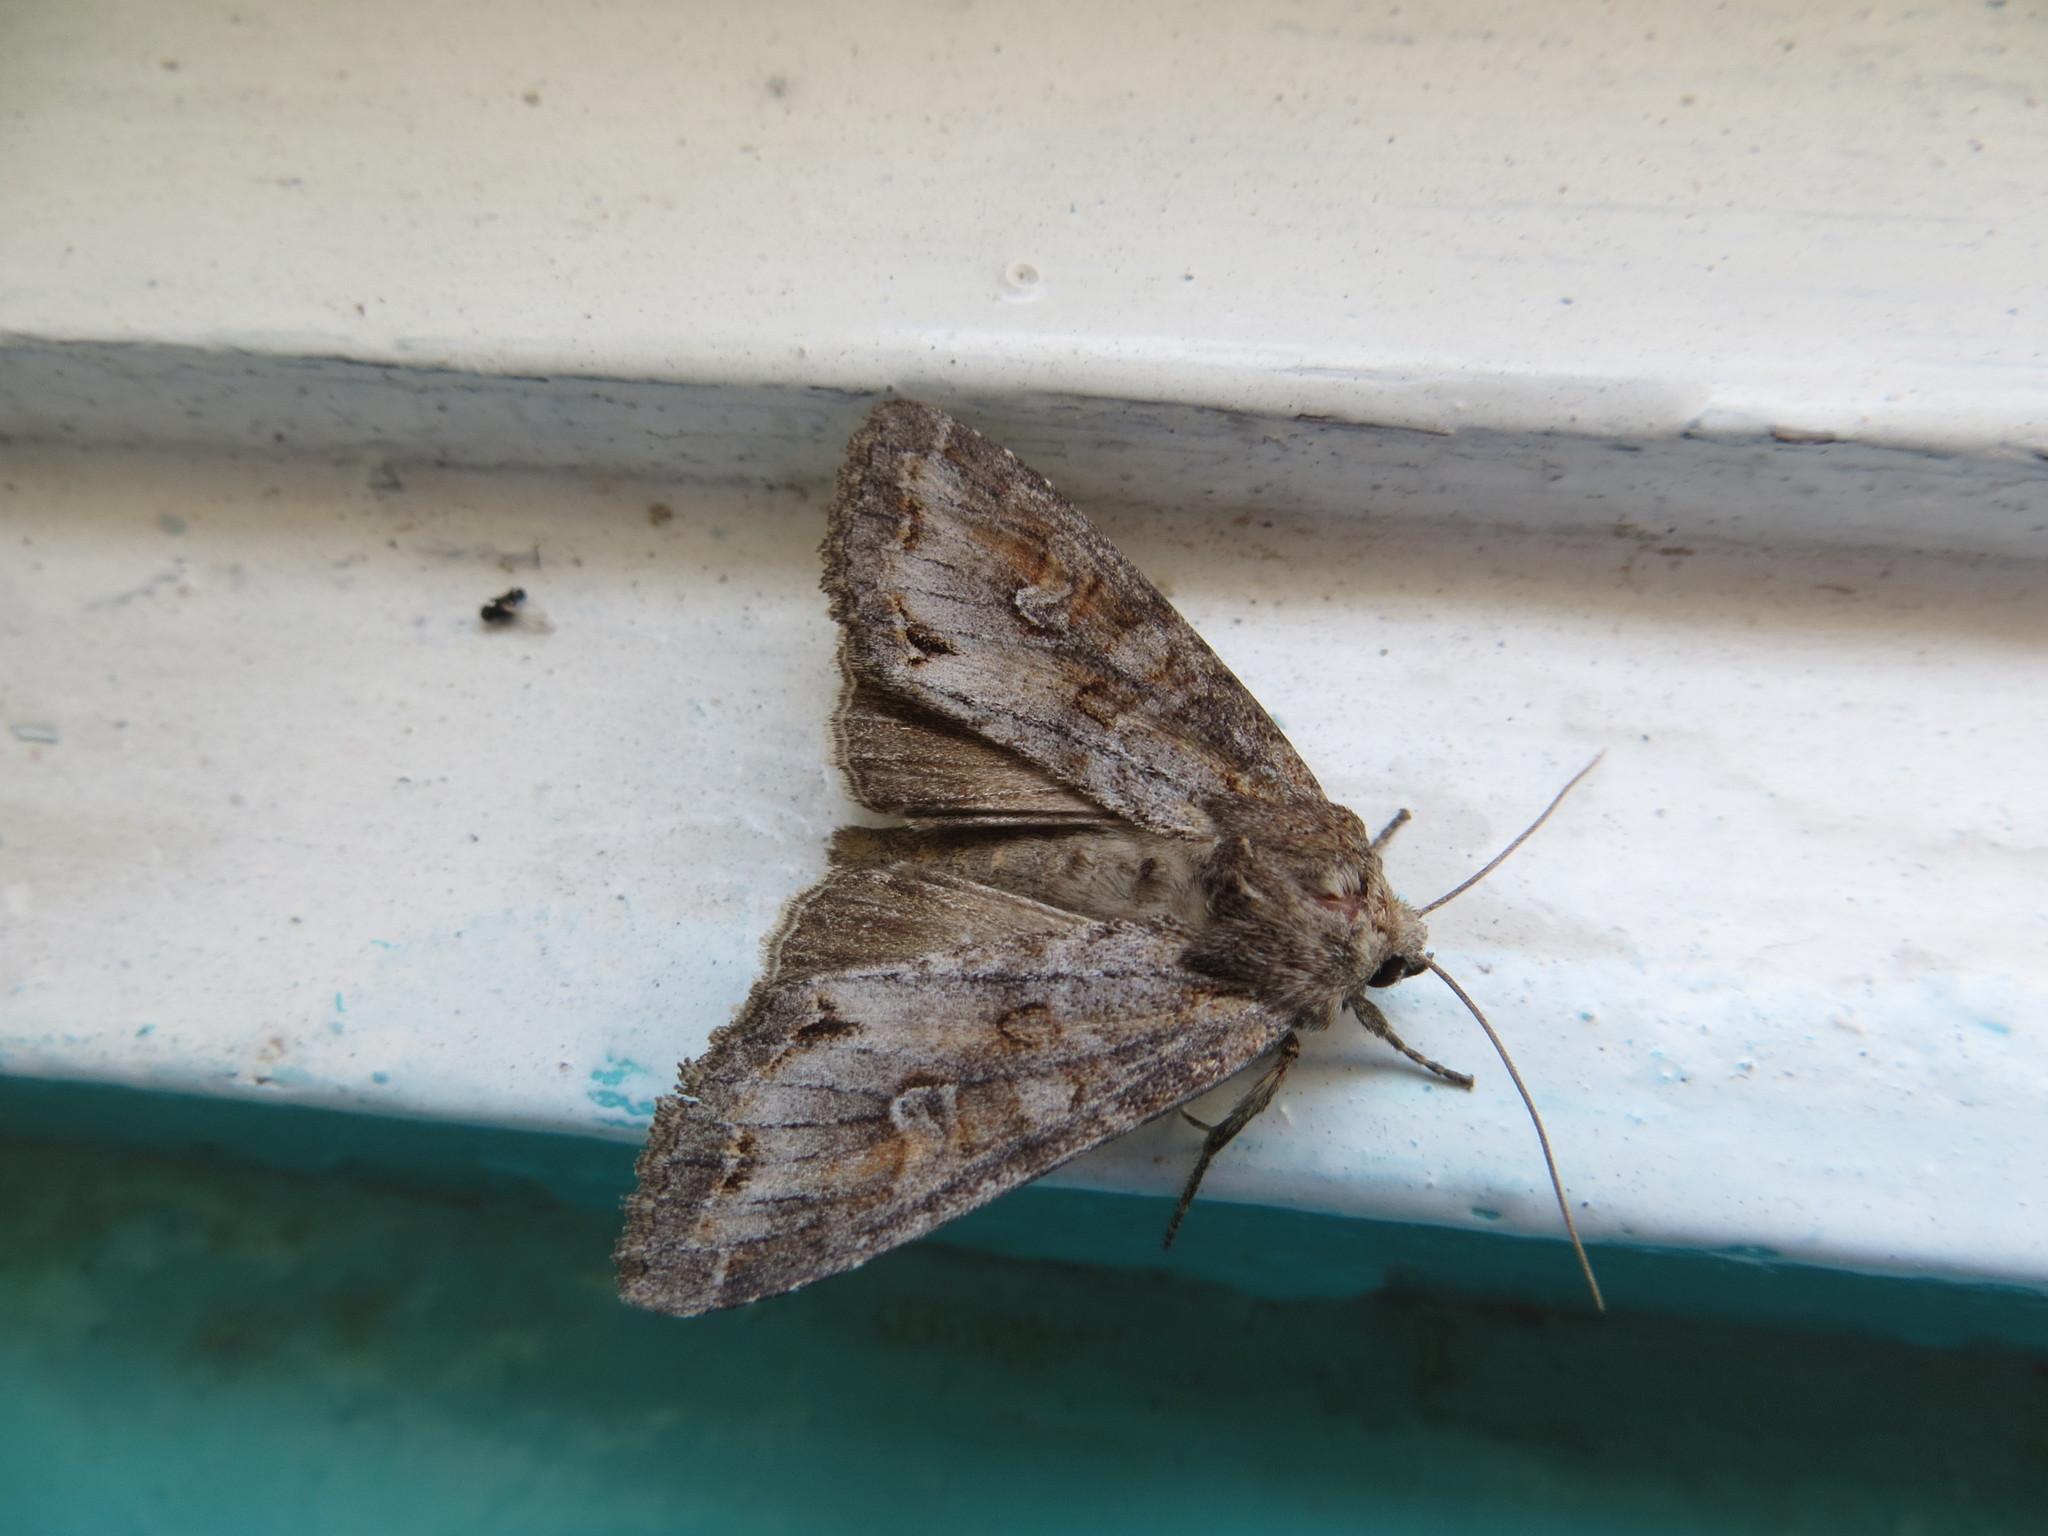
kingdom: Animalia
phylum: Arthropoda
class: Insecta
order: Lepidoptera
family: Noctuidae
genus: Polia
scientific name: Polia bombycina
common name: Pale shining brown
